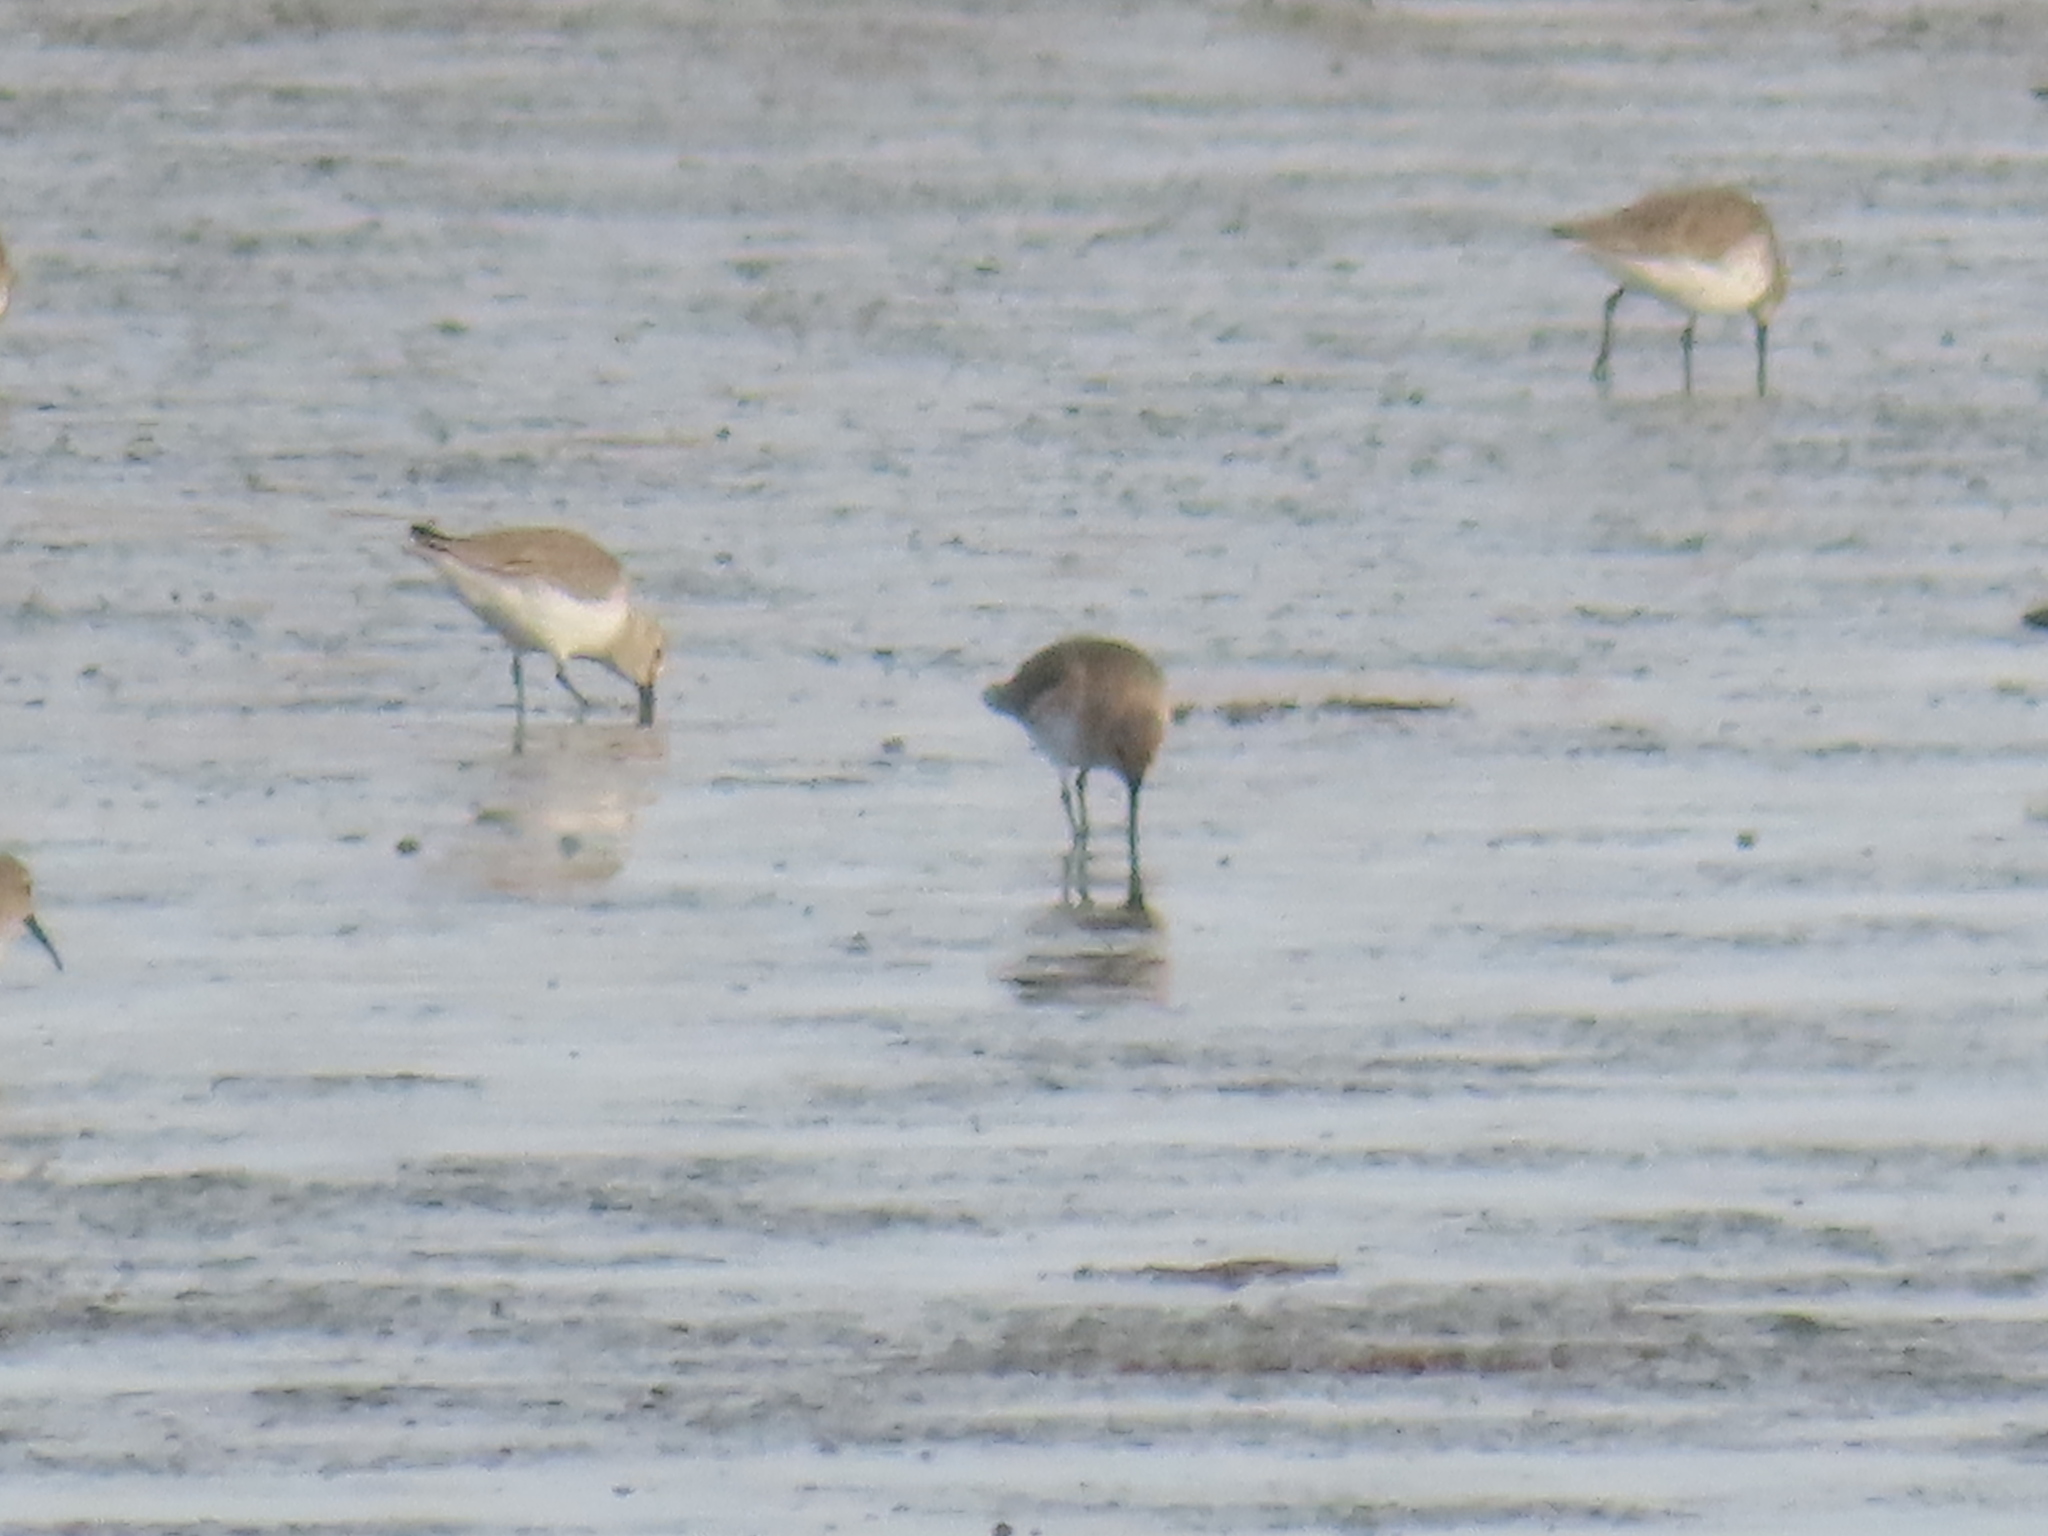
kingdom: Animalia
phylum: Chordata
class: Aves
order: Charadriiformes
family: Scolopacidae
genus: Calidris
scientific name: Calidris alpina
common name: Dunlin
